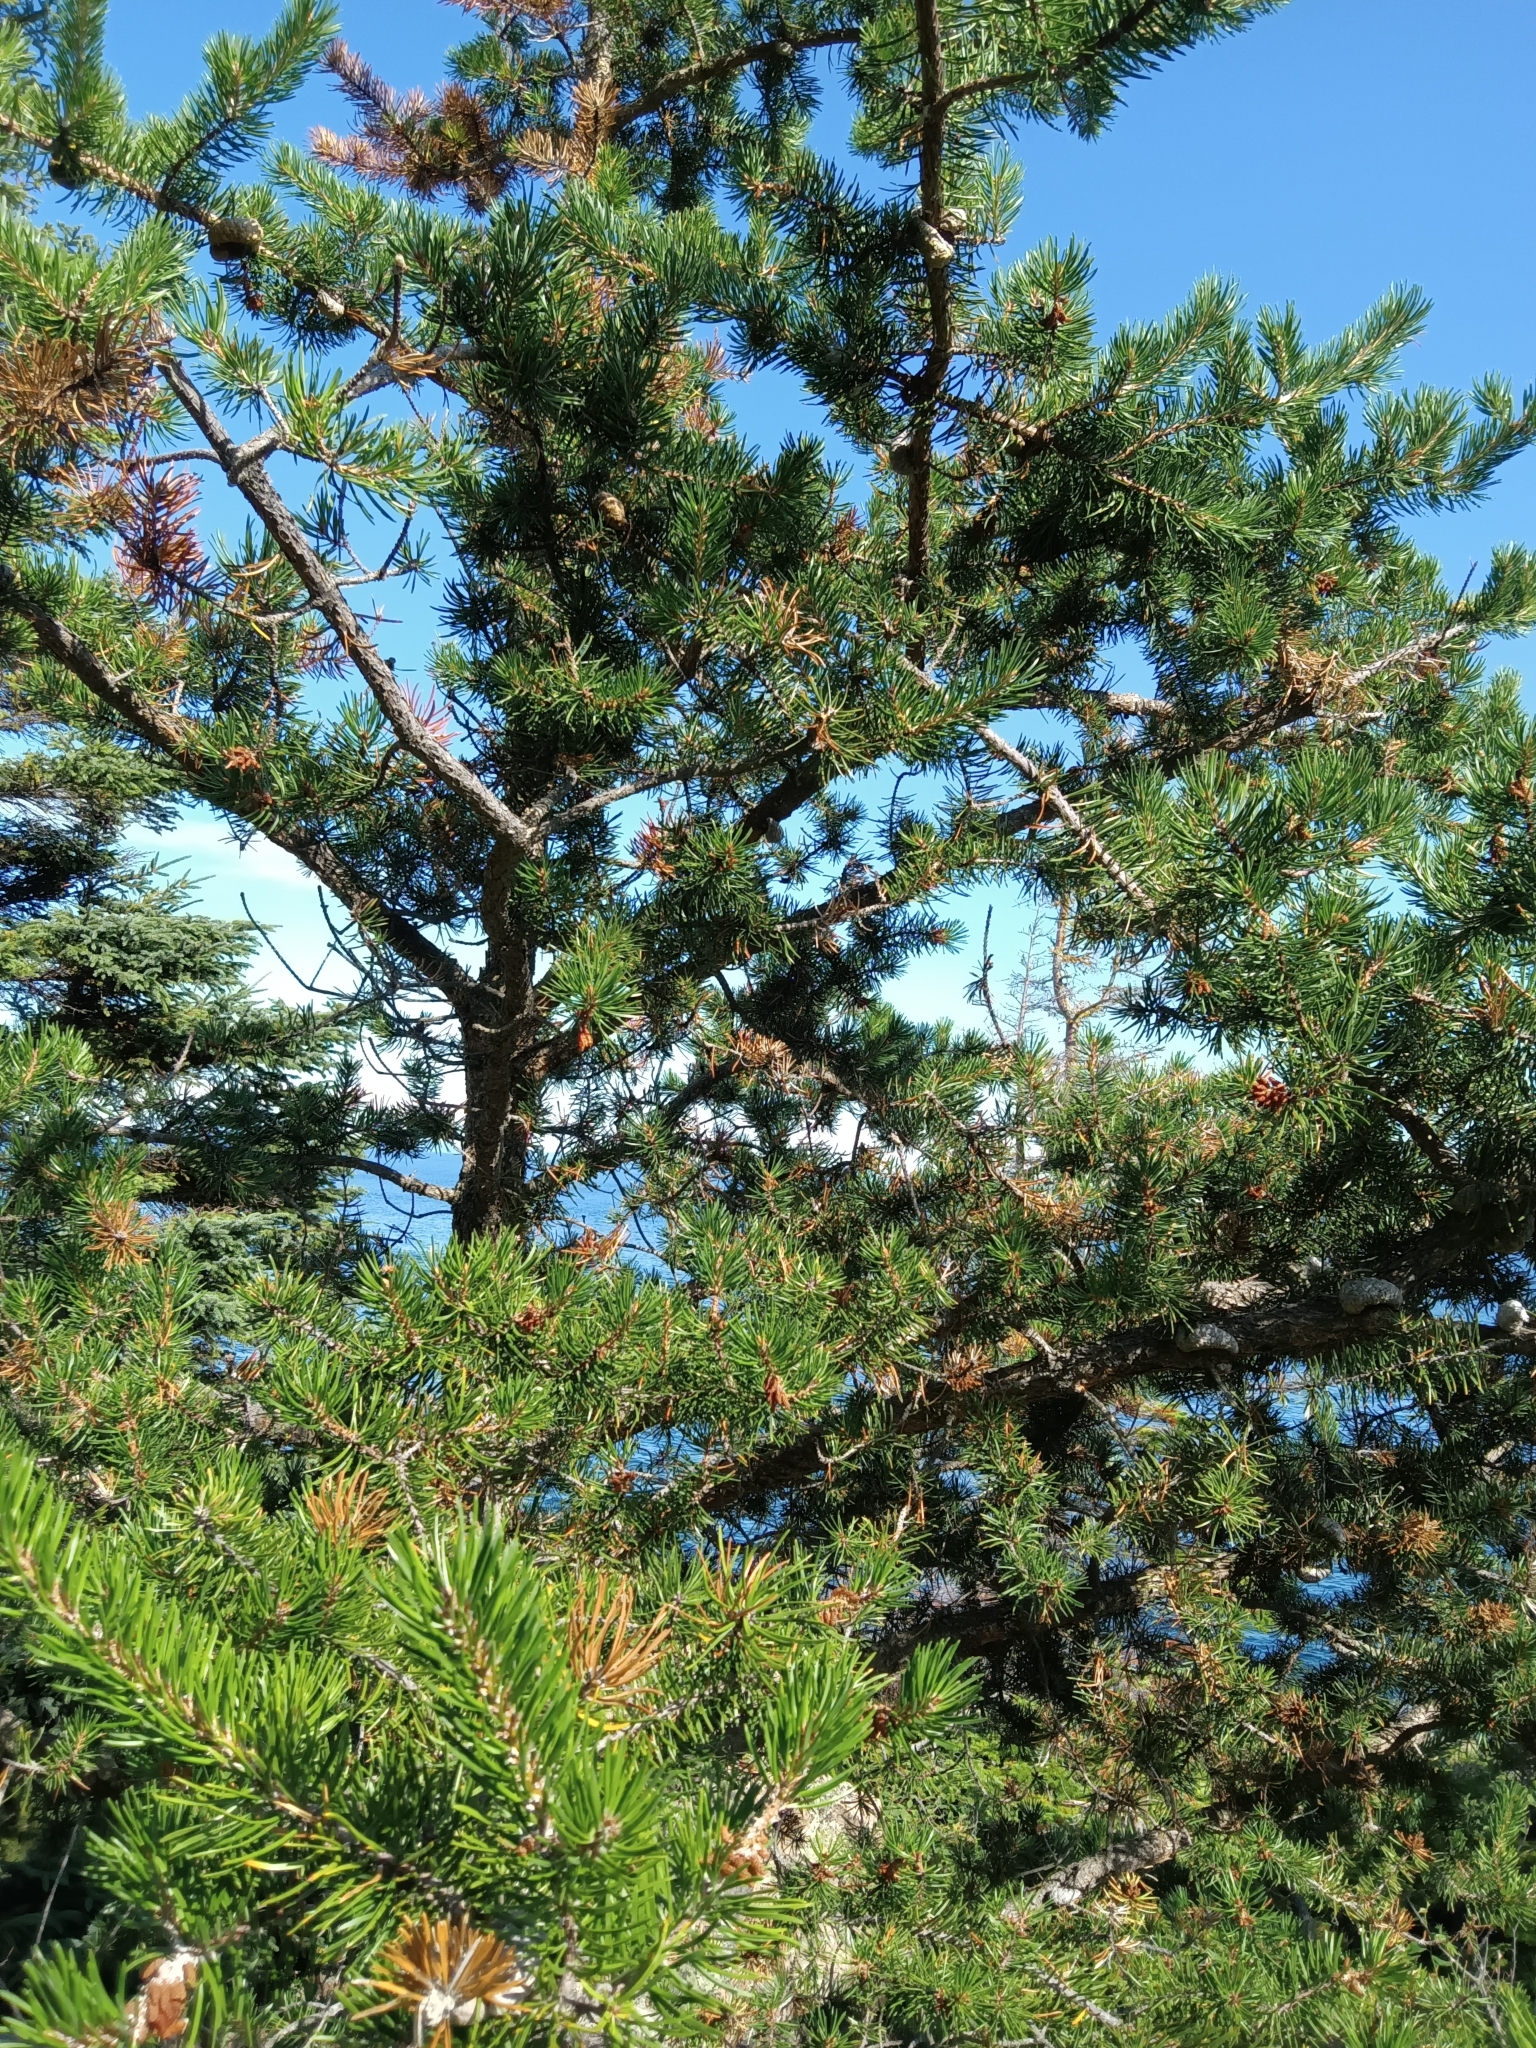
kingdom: Plantae
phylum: Tracheophyta
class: Pinopsida
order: Pinales
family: Pinaceae
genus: Pinus
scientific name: Pinus banksiana
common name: Jack pine
